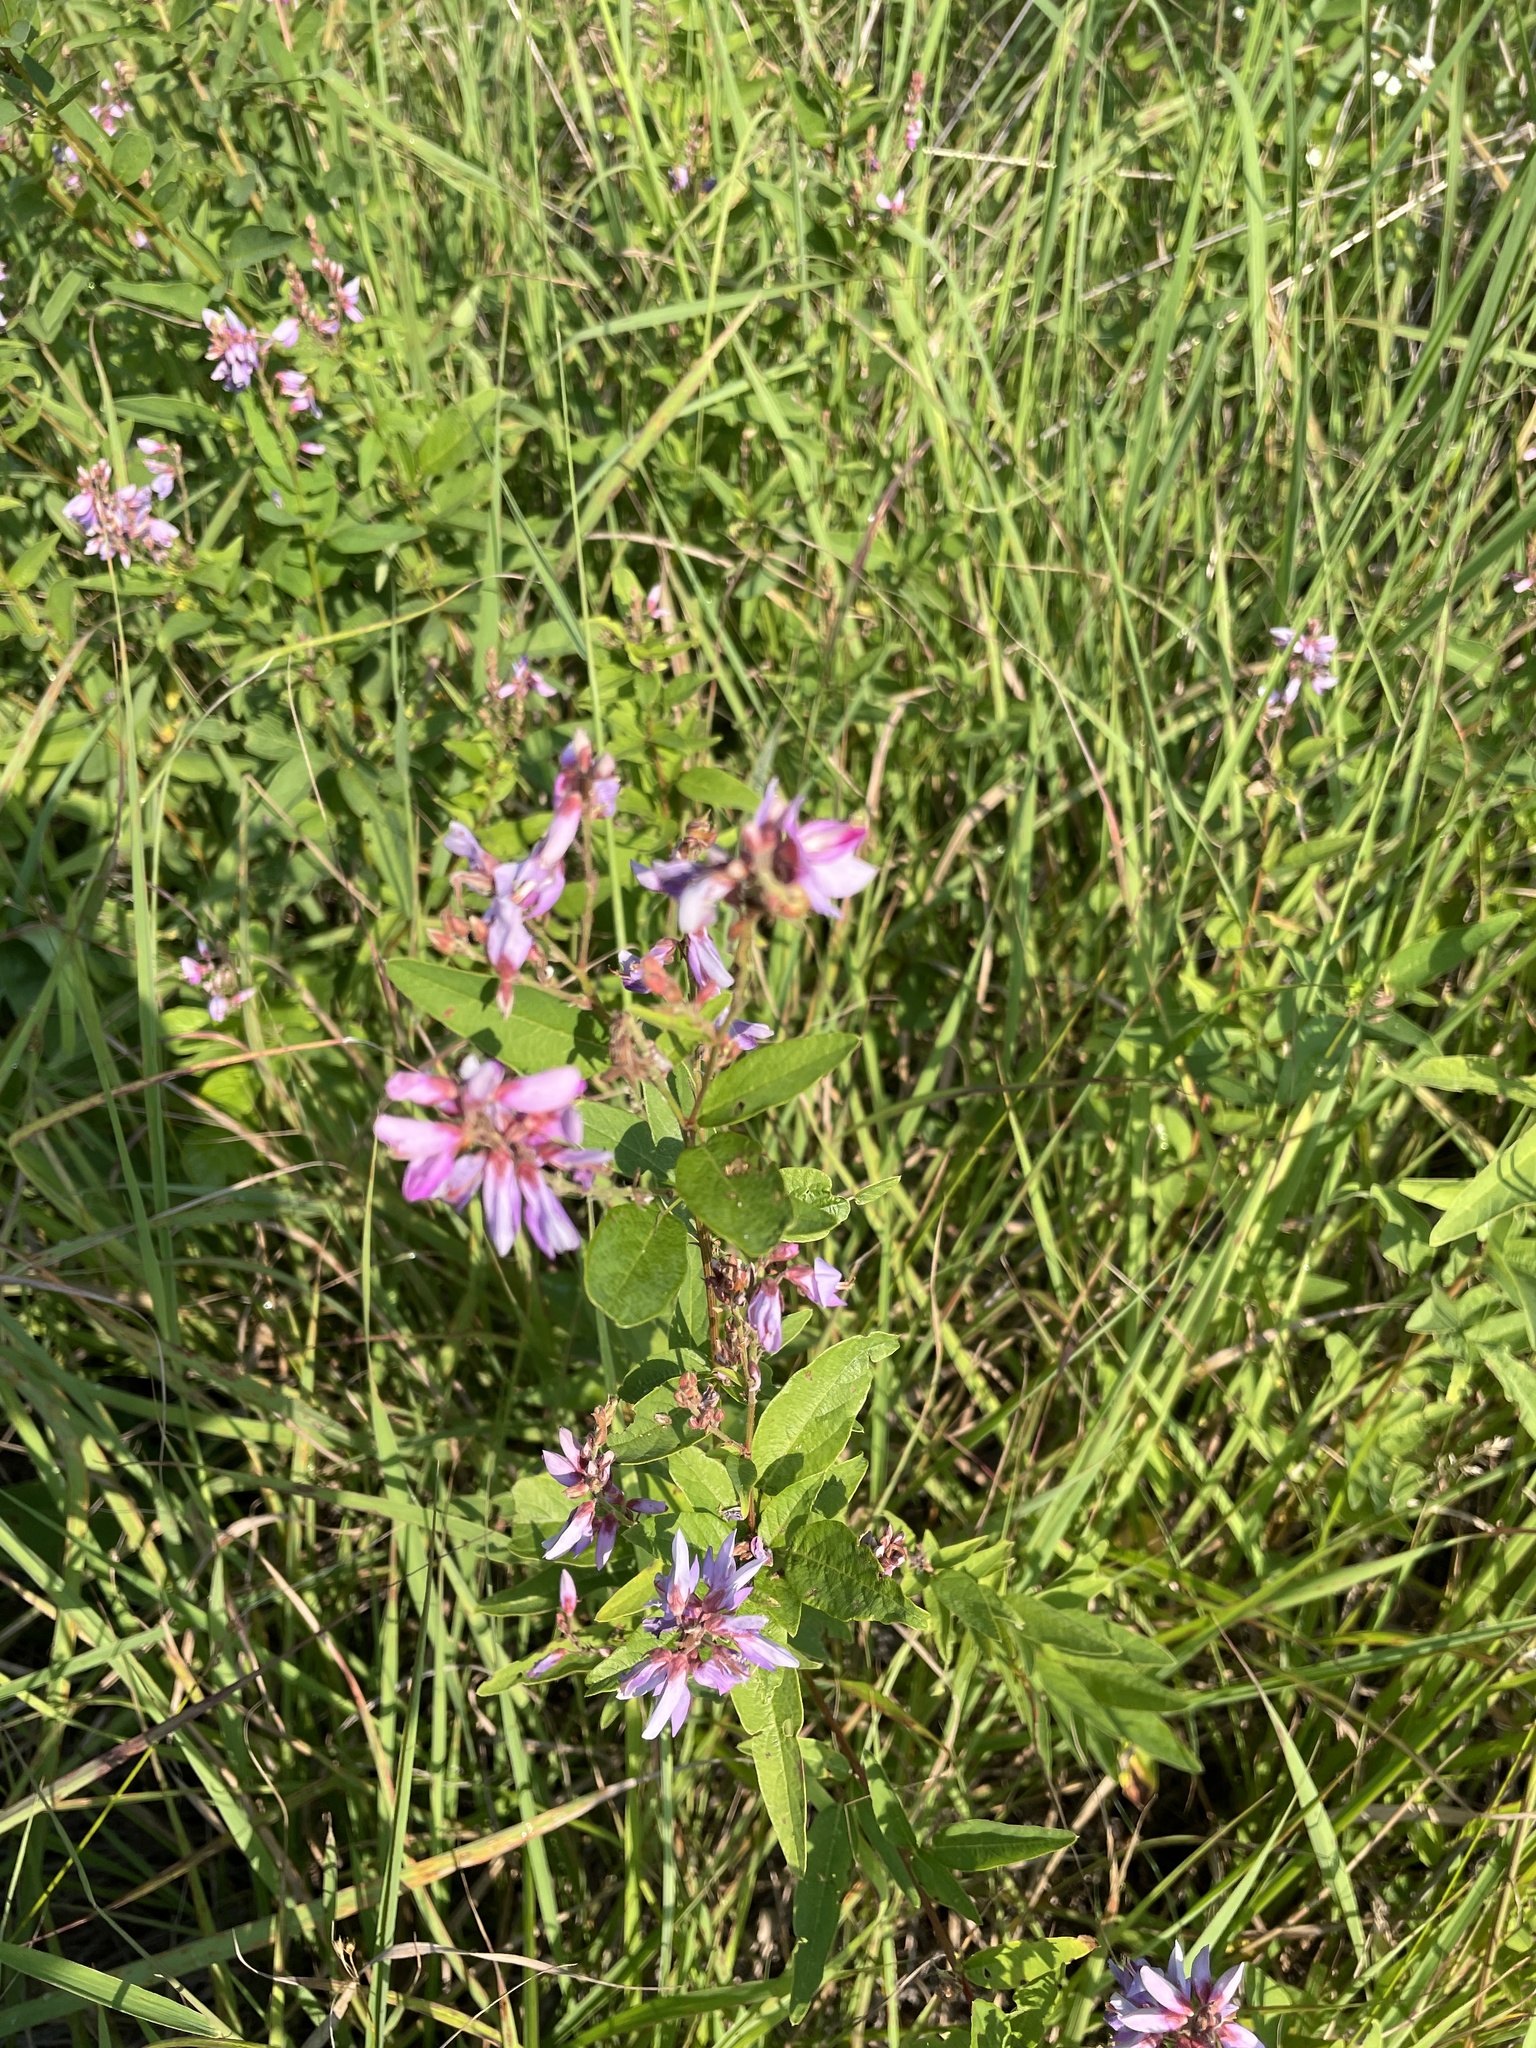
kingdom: Plantae
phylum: Tracheophyta
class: Magnoliopsida
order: Fabales
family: Fabaceae
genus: Desmodium
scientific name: Desmodium canadense
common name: Canada tick-trefoil
